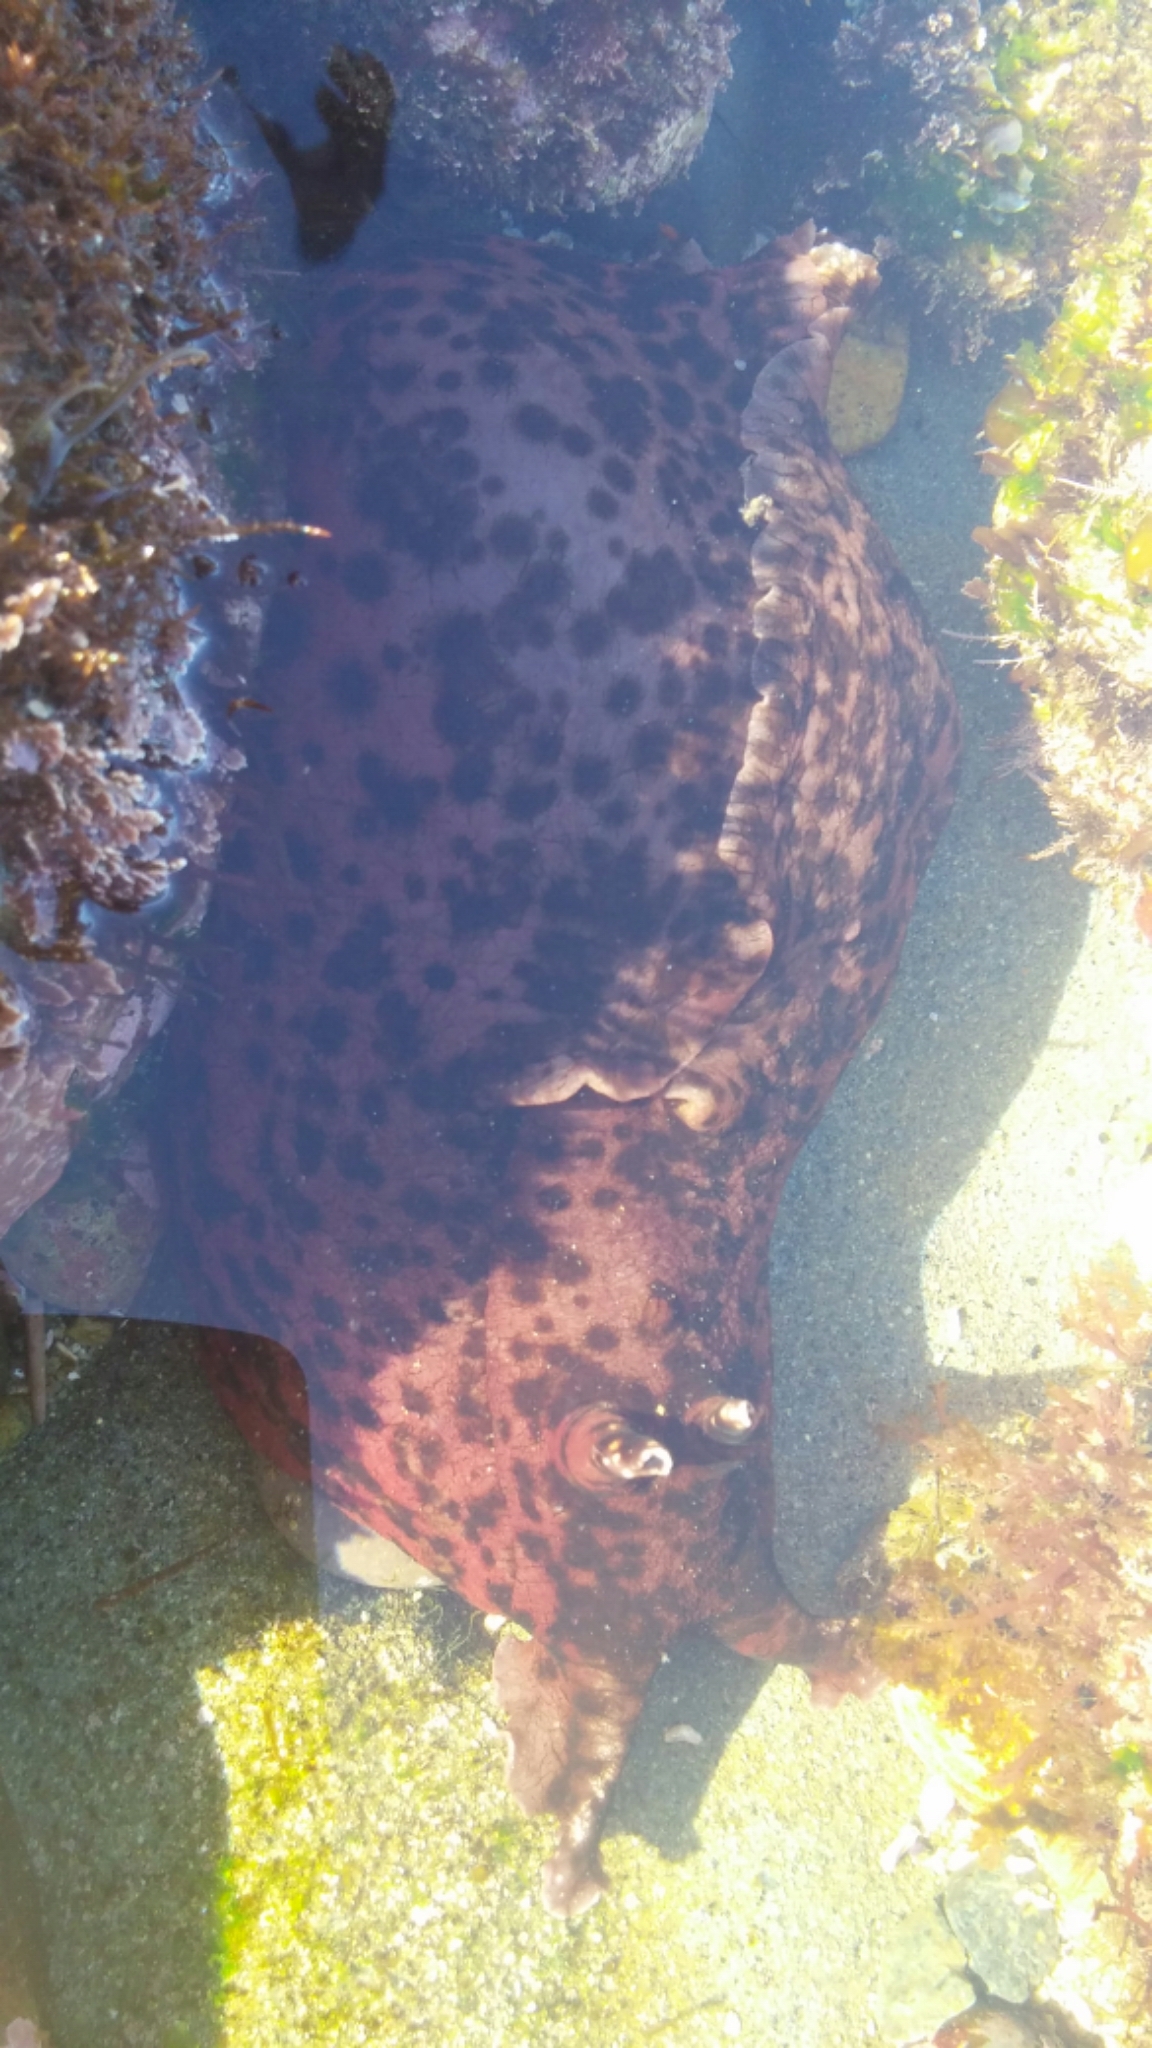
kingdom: Animalia
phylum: Mollusca
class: Gastropoda
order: Aplysiida
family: Aplysiidae
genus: Aplysia
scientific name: Aplysia californica
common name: California seahare
